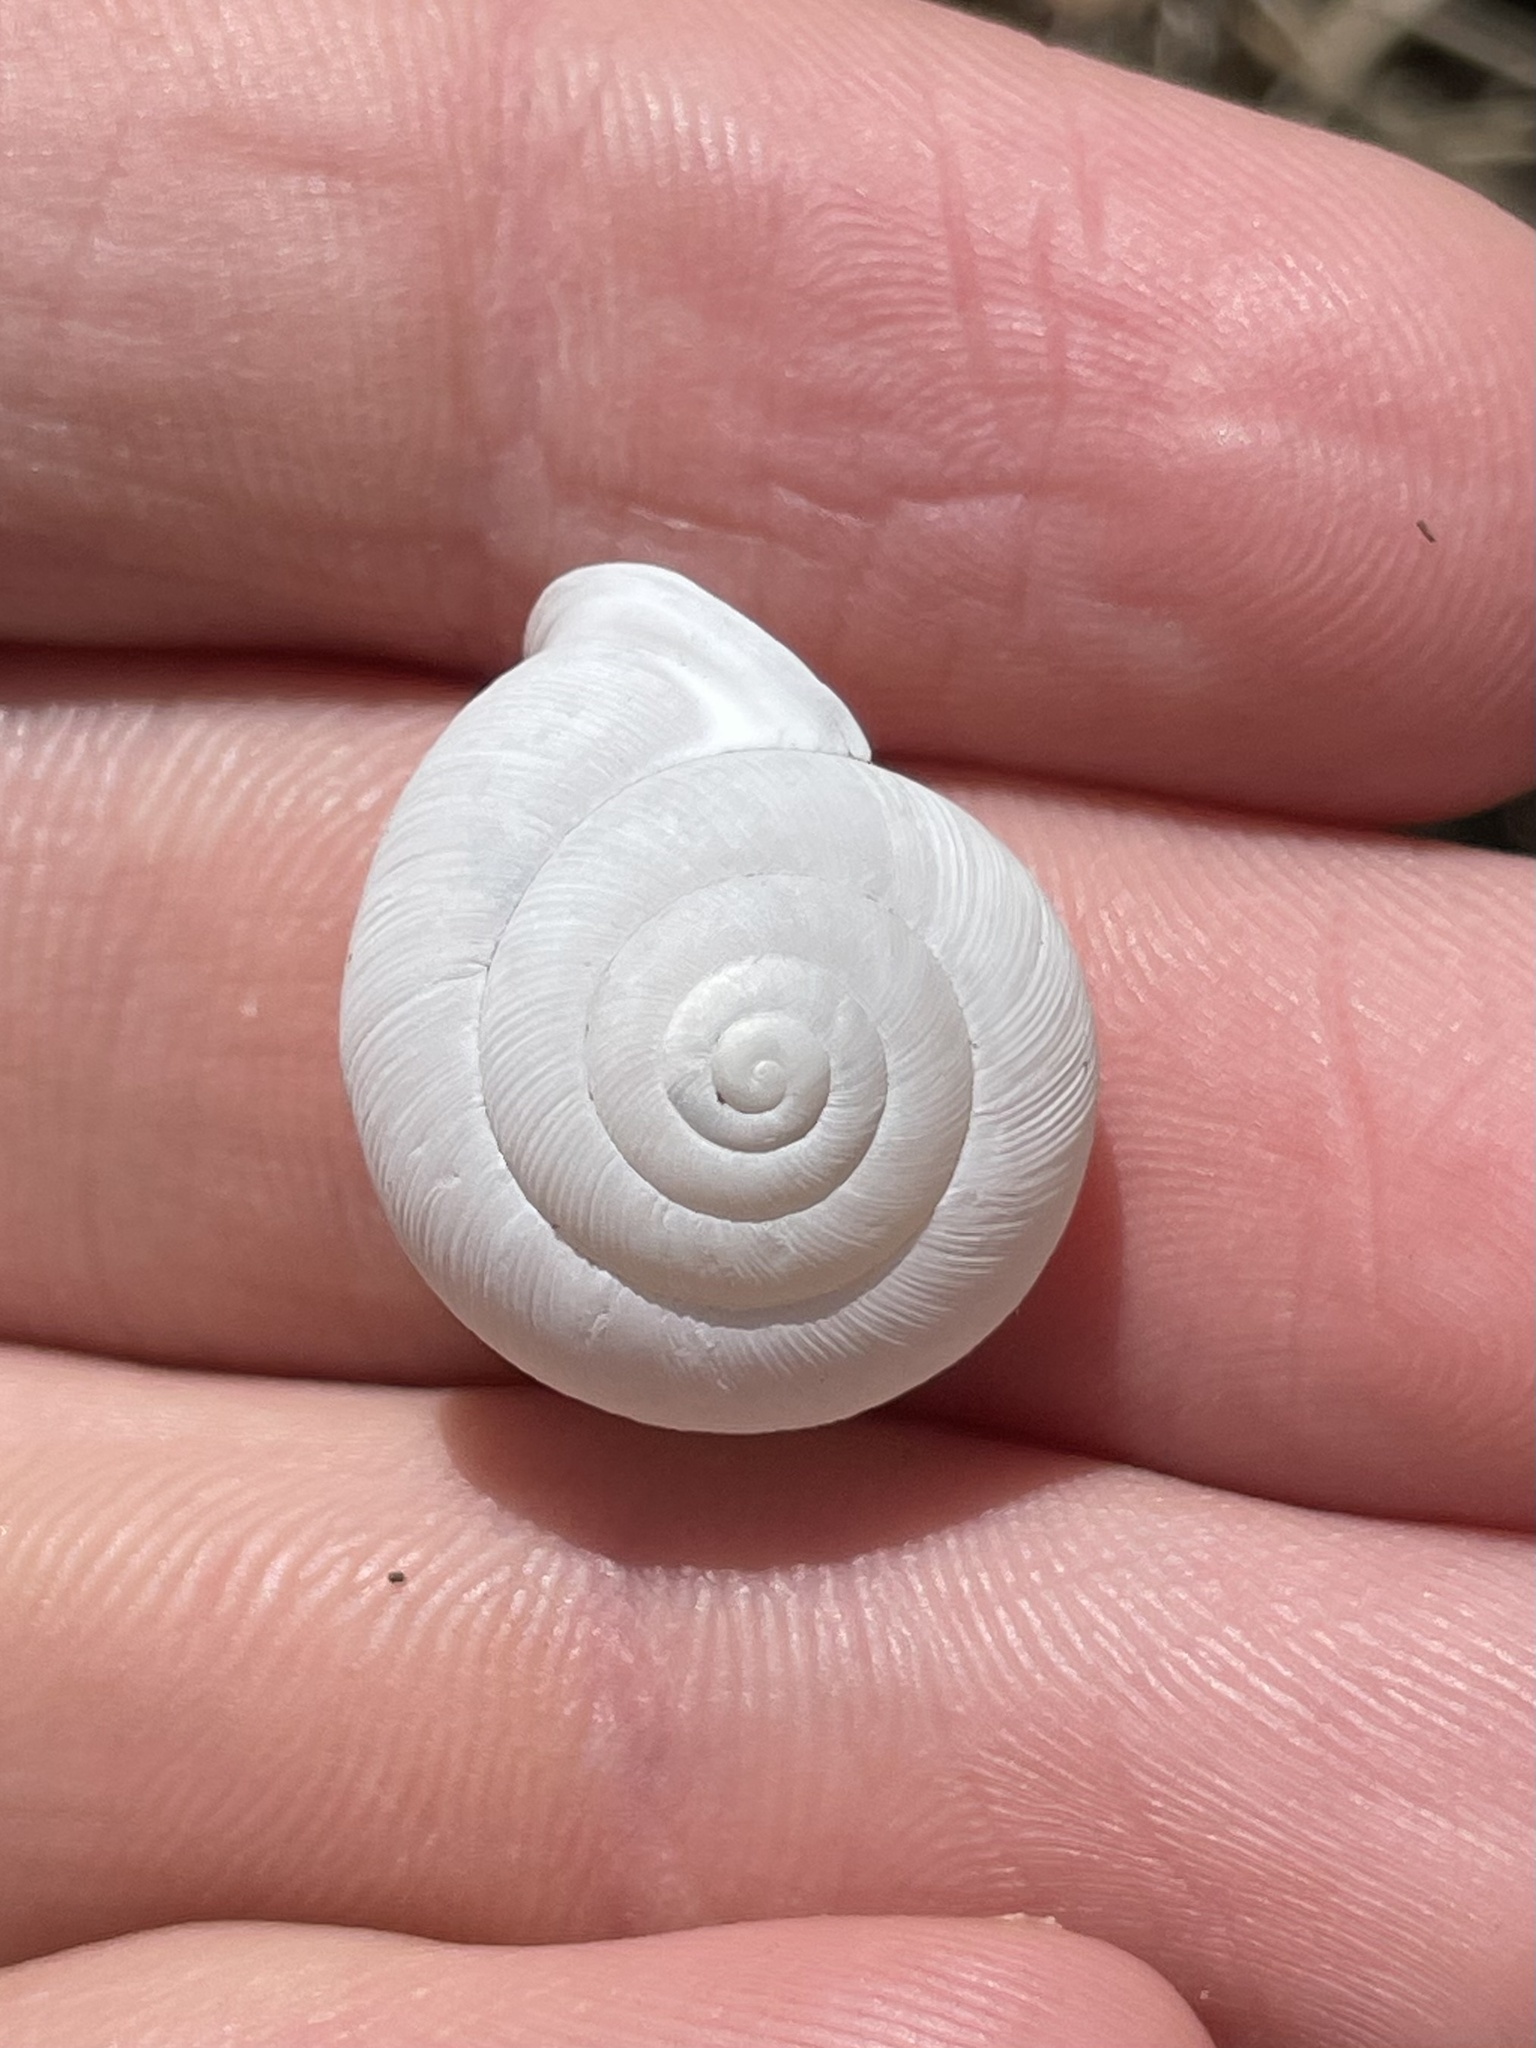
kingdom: Animalia
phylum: Mollusca
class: Gastropoda
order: Stylommatophora
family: Polygyridae
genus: Patera
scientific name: Patera roemeri
